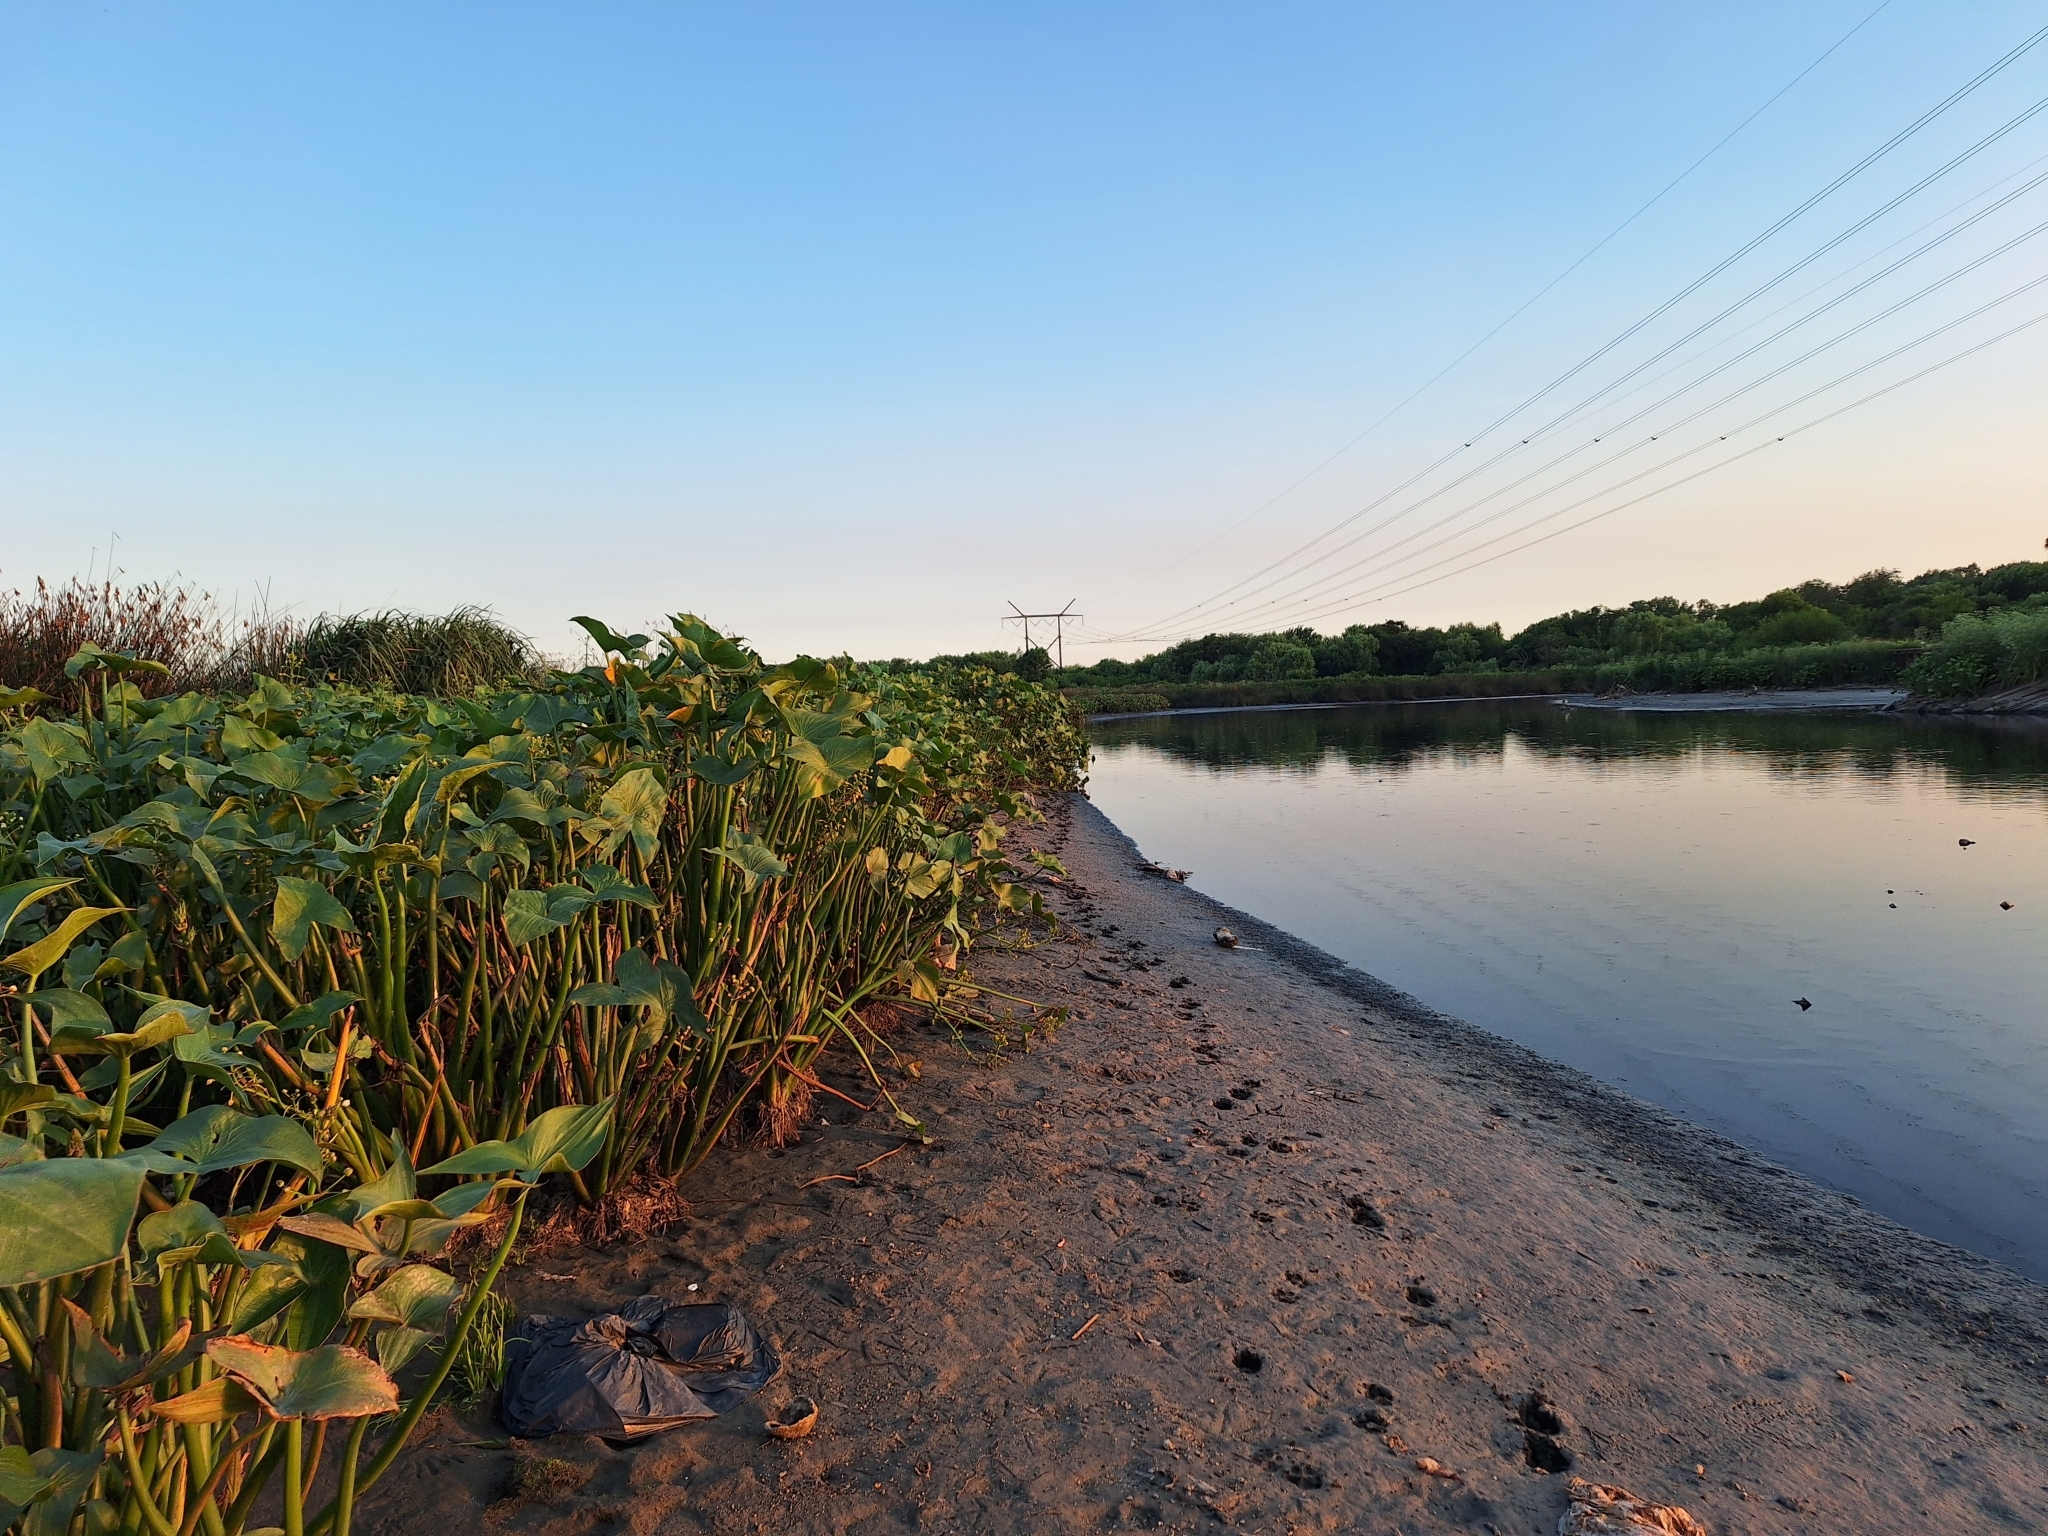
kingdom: Plantae
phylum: Tracheophyta
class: Liliopsida
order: Alismatales
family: Alismataceae
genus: Sagittaria
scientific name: Sagittaria montevidensis
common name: Giant arrowhead
